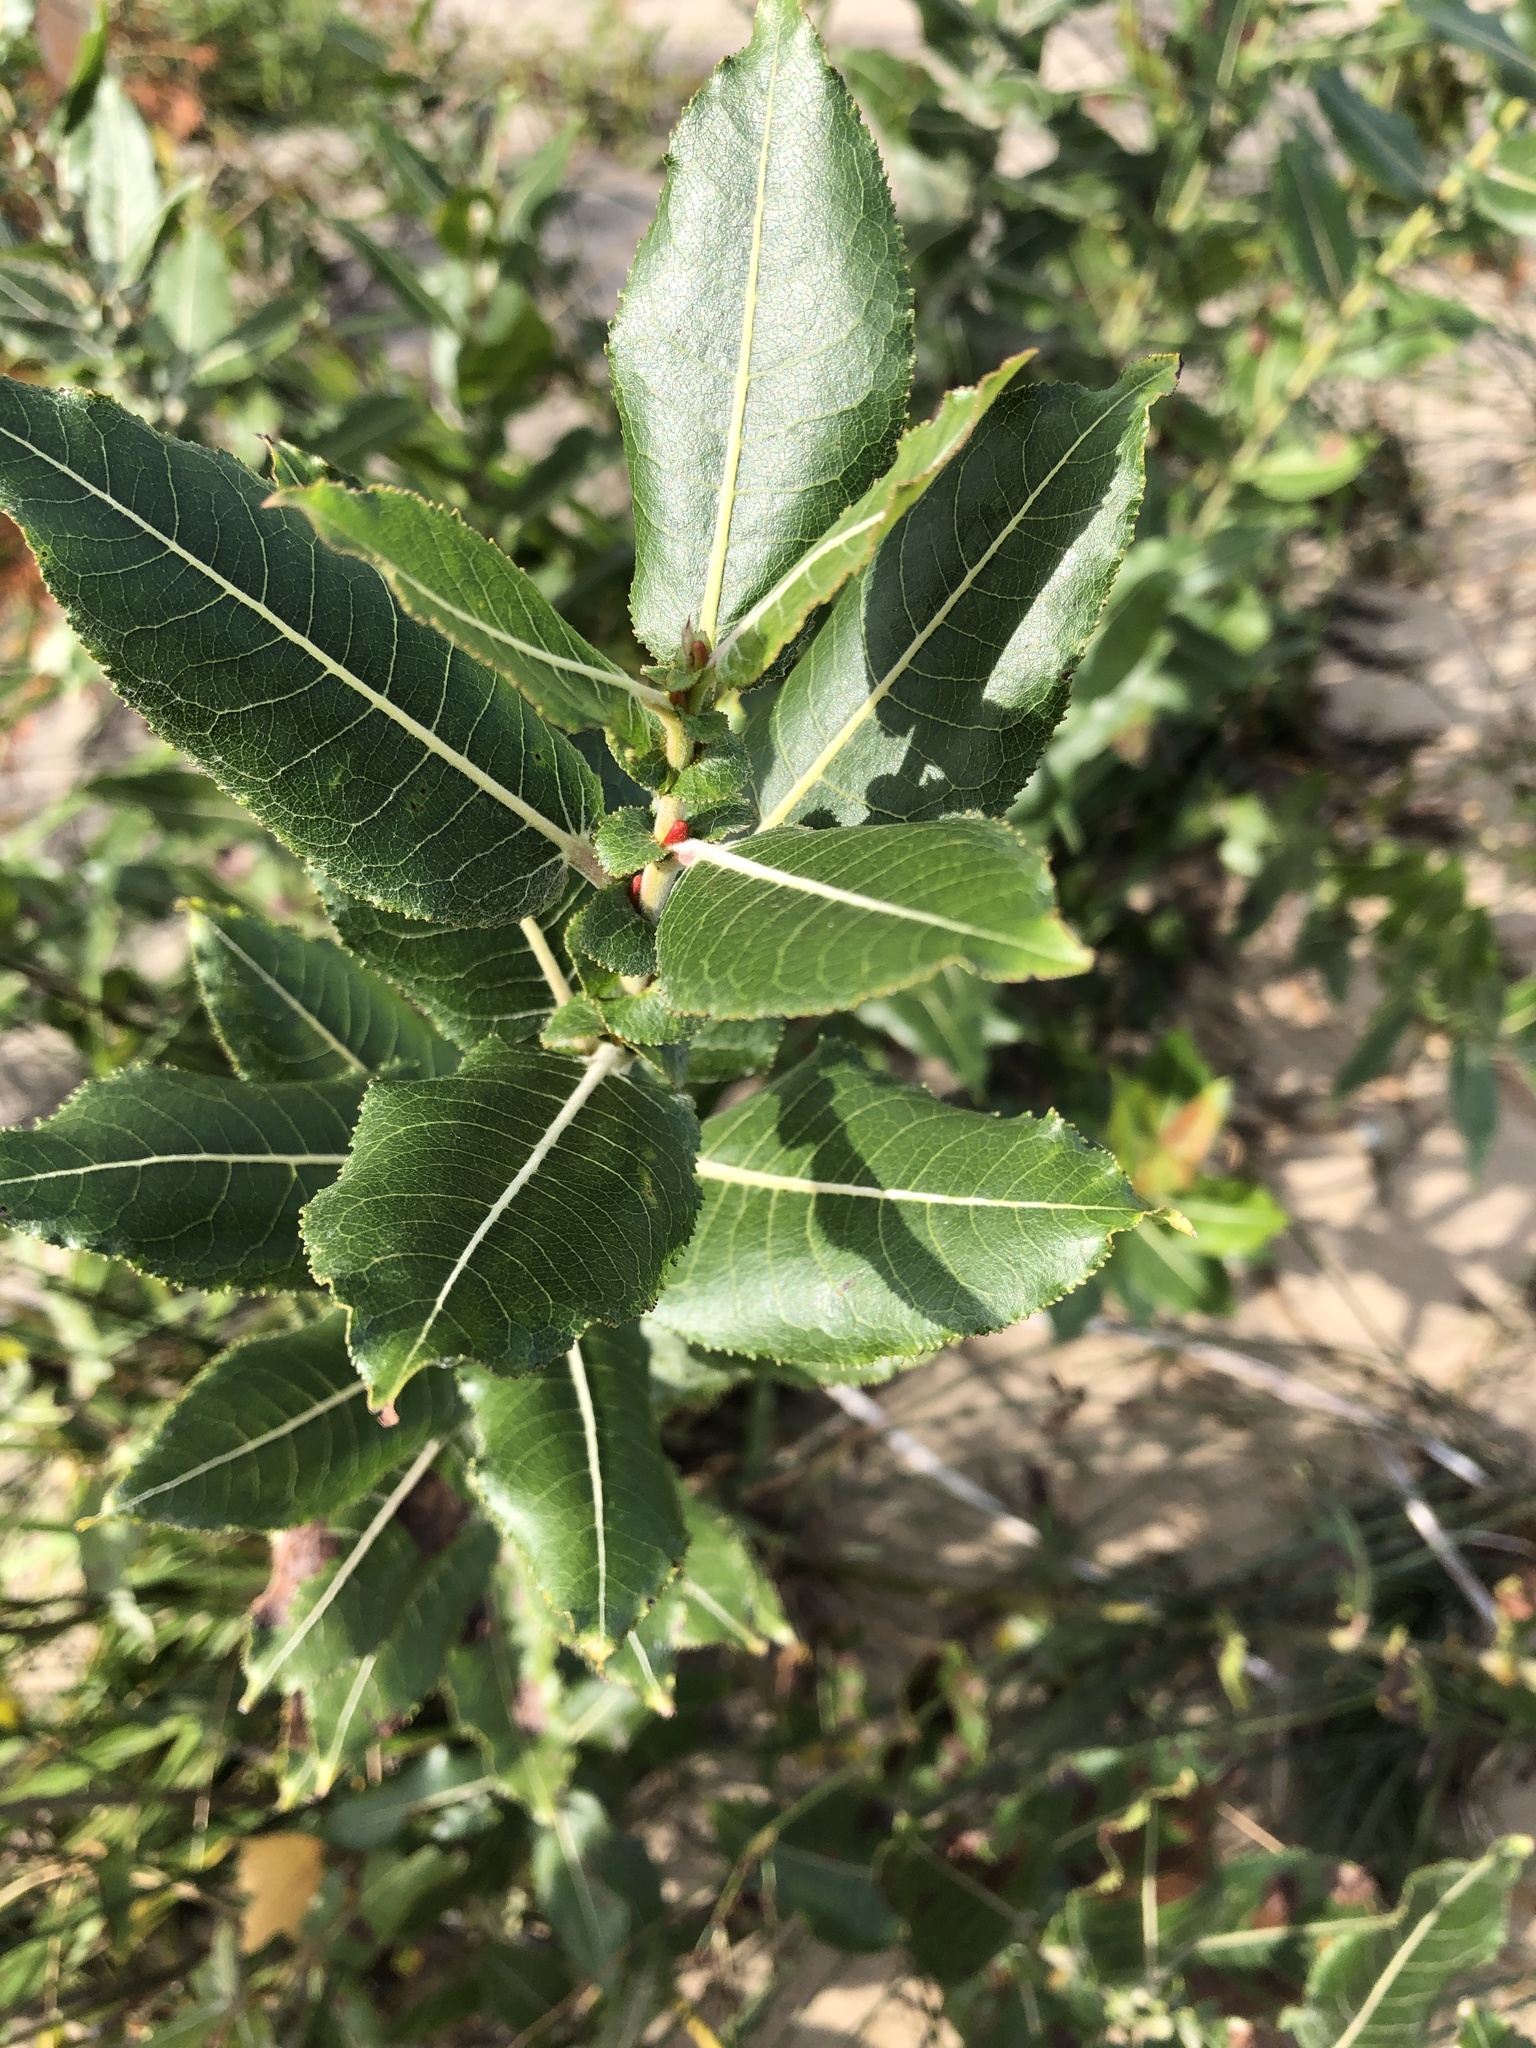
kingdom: Plantae
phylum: Tracheophyta
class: Magnoliopsida
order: Malpighiales
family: Salicaceae
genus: Salix
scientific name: Salix eriocephala
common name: Heart-leaved willow
